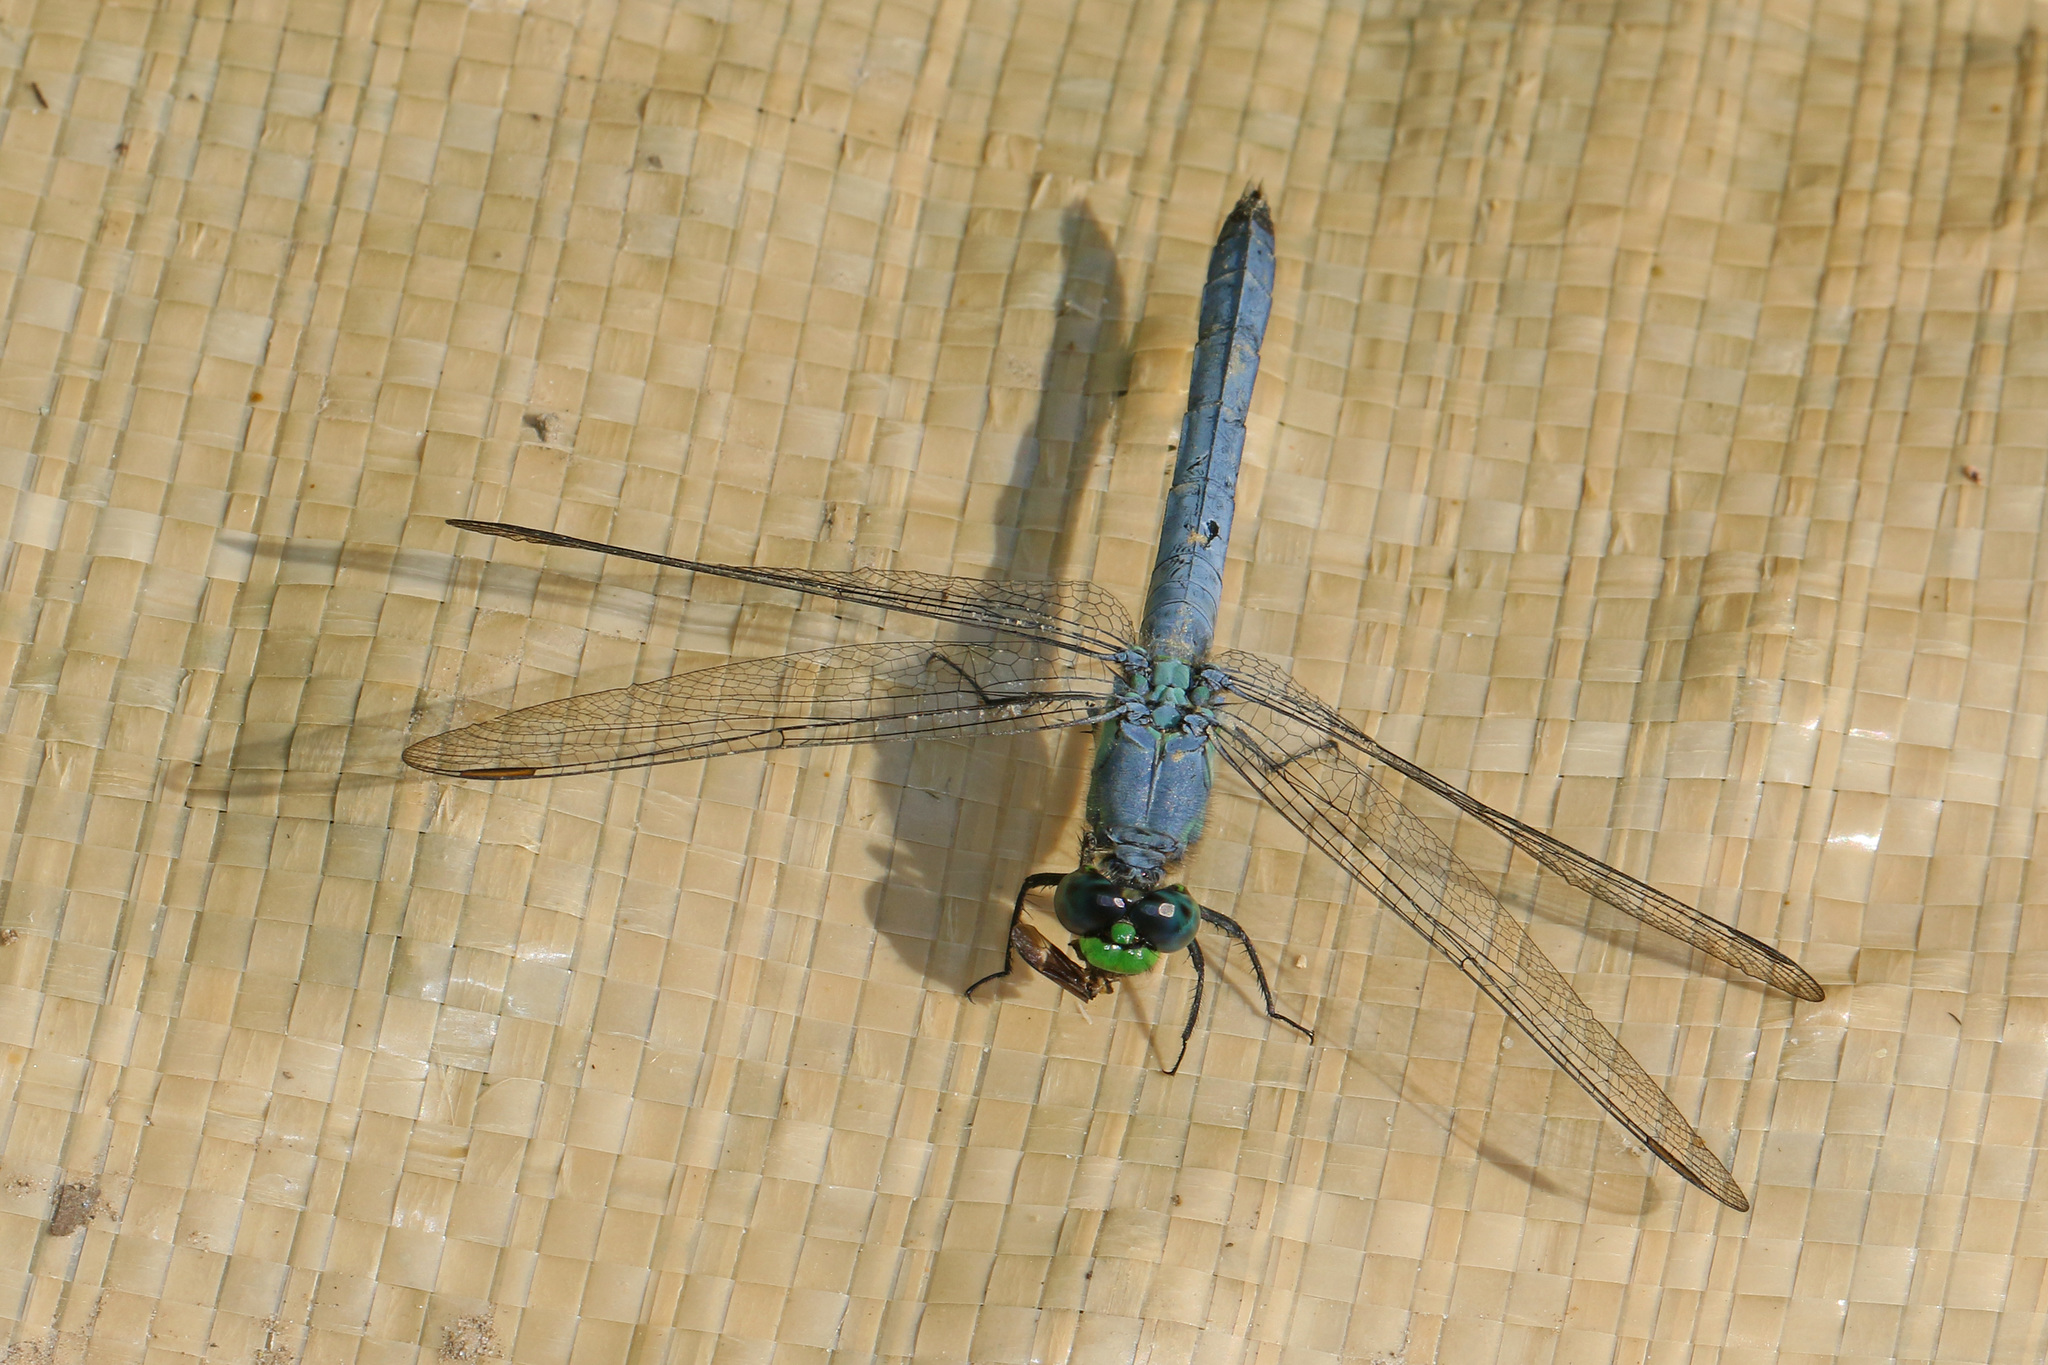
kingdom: Animalia
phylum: Arthropoda
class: Insecta
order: Odonata
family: Libellulidae
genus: Erythemis
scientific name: Erythemis simplicicollis
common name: Eastern pondhawk
